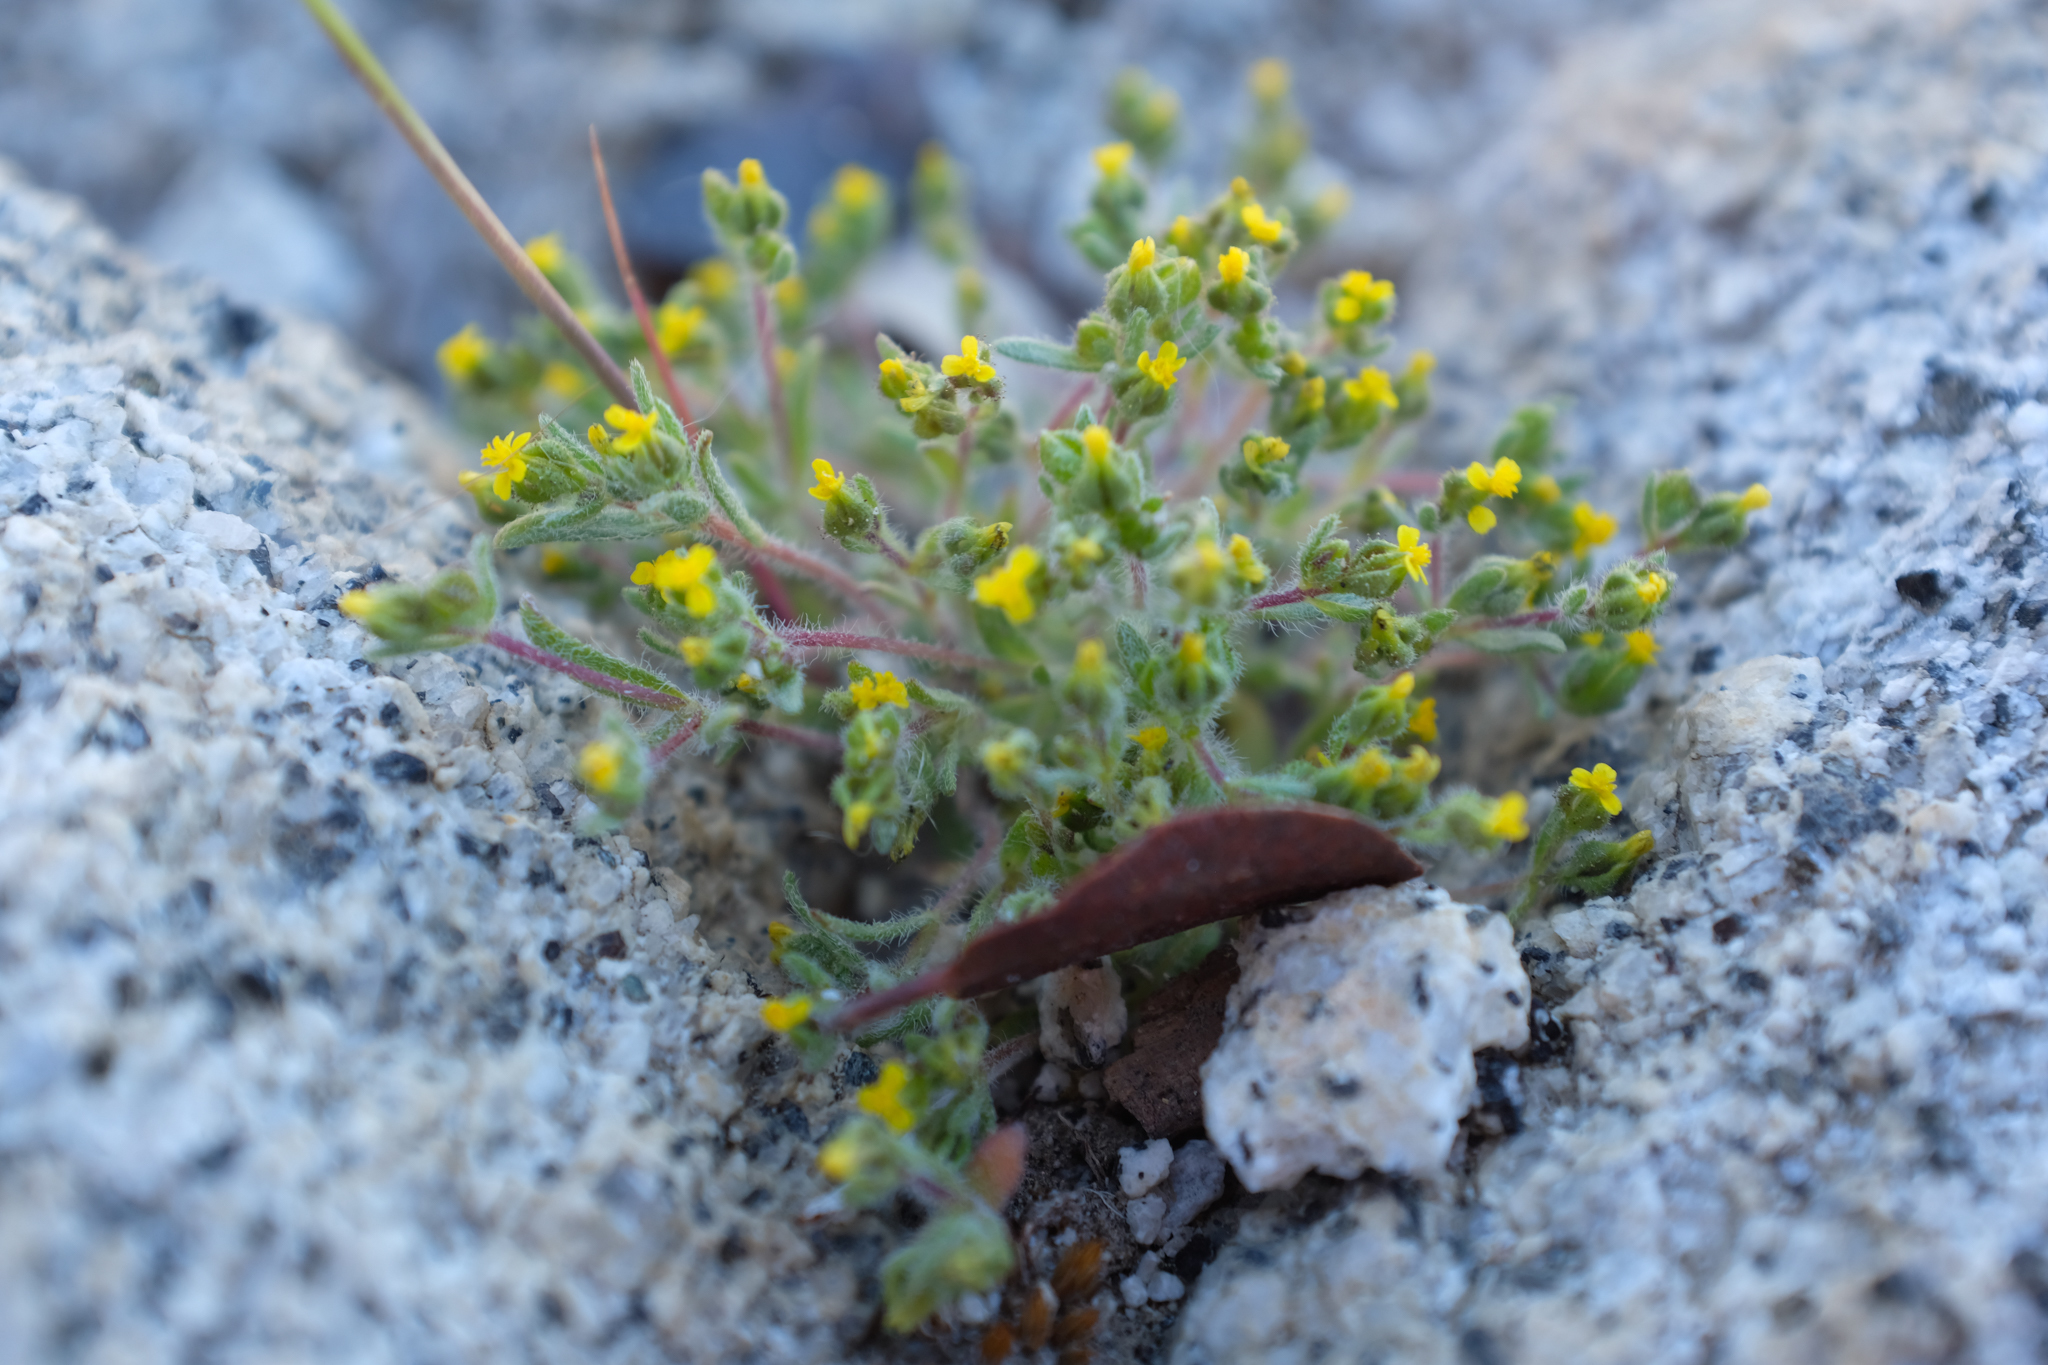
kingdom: Plantae
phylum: Tracheophyta
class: Magnoliopsida
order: Asterales
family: Asteraceae
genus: Hemizonella
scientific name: Hemizonella minima
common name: Opposite-leaved tarweed
